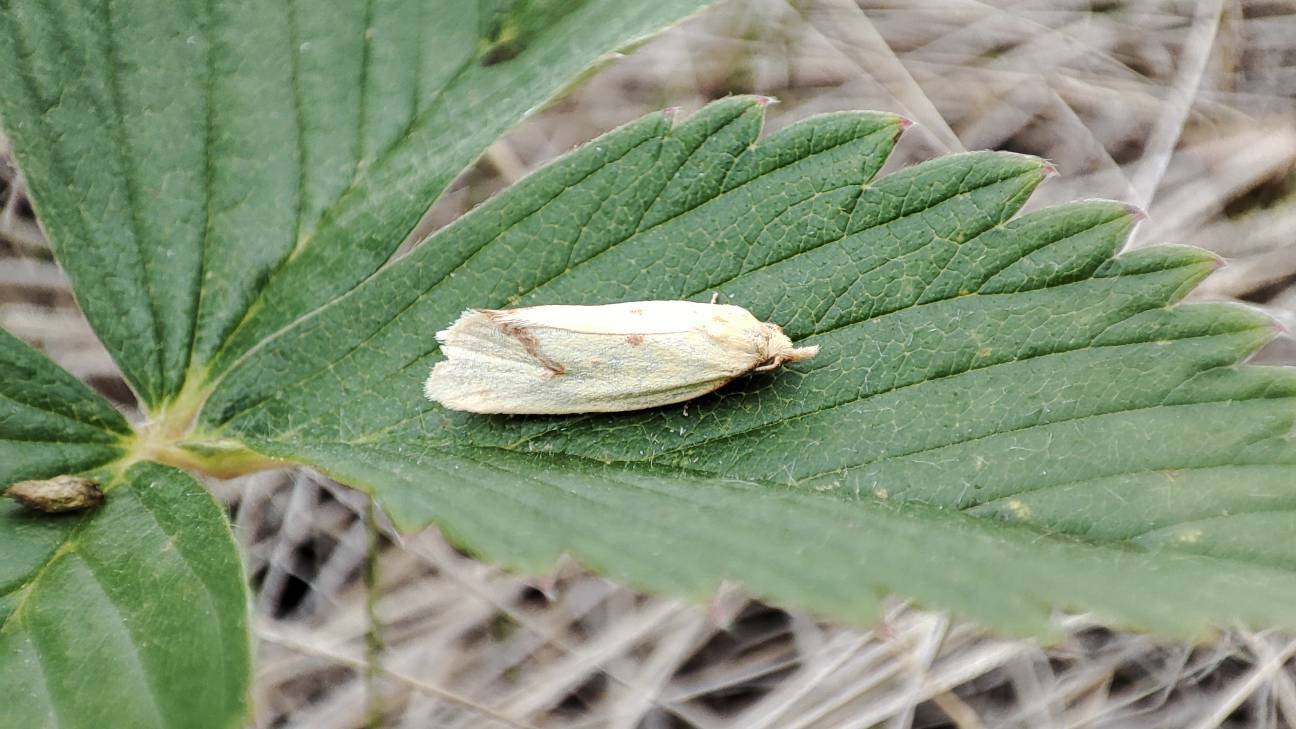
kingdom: Animalia
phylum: Arthropoda
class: Insecta
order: Lepidoptera
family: Tortricidae
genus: Agapeta
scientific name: Agapeta hamana
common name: Common yellow conch
